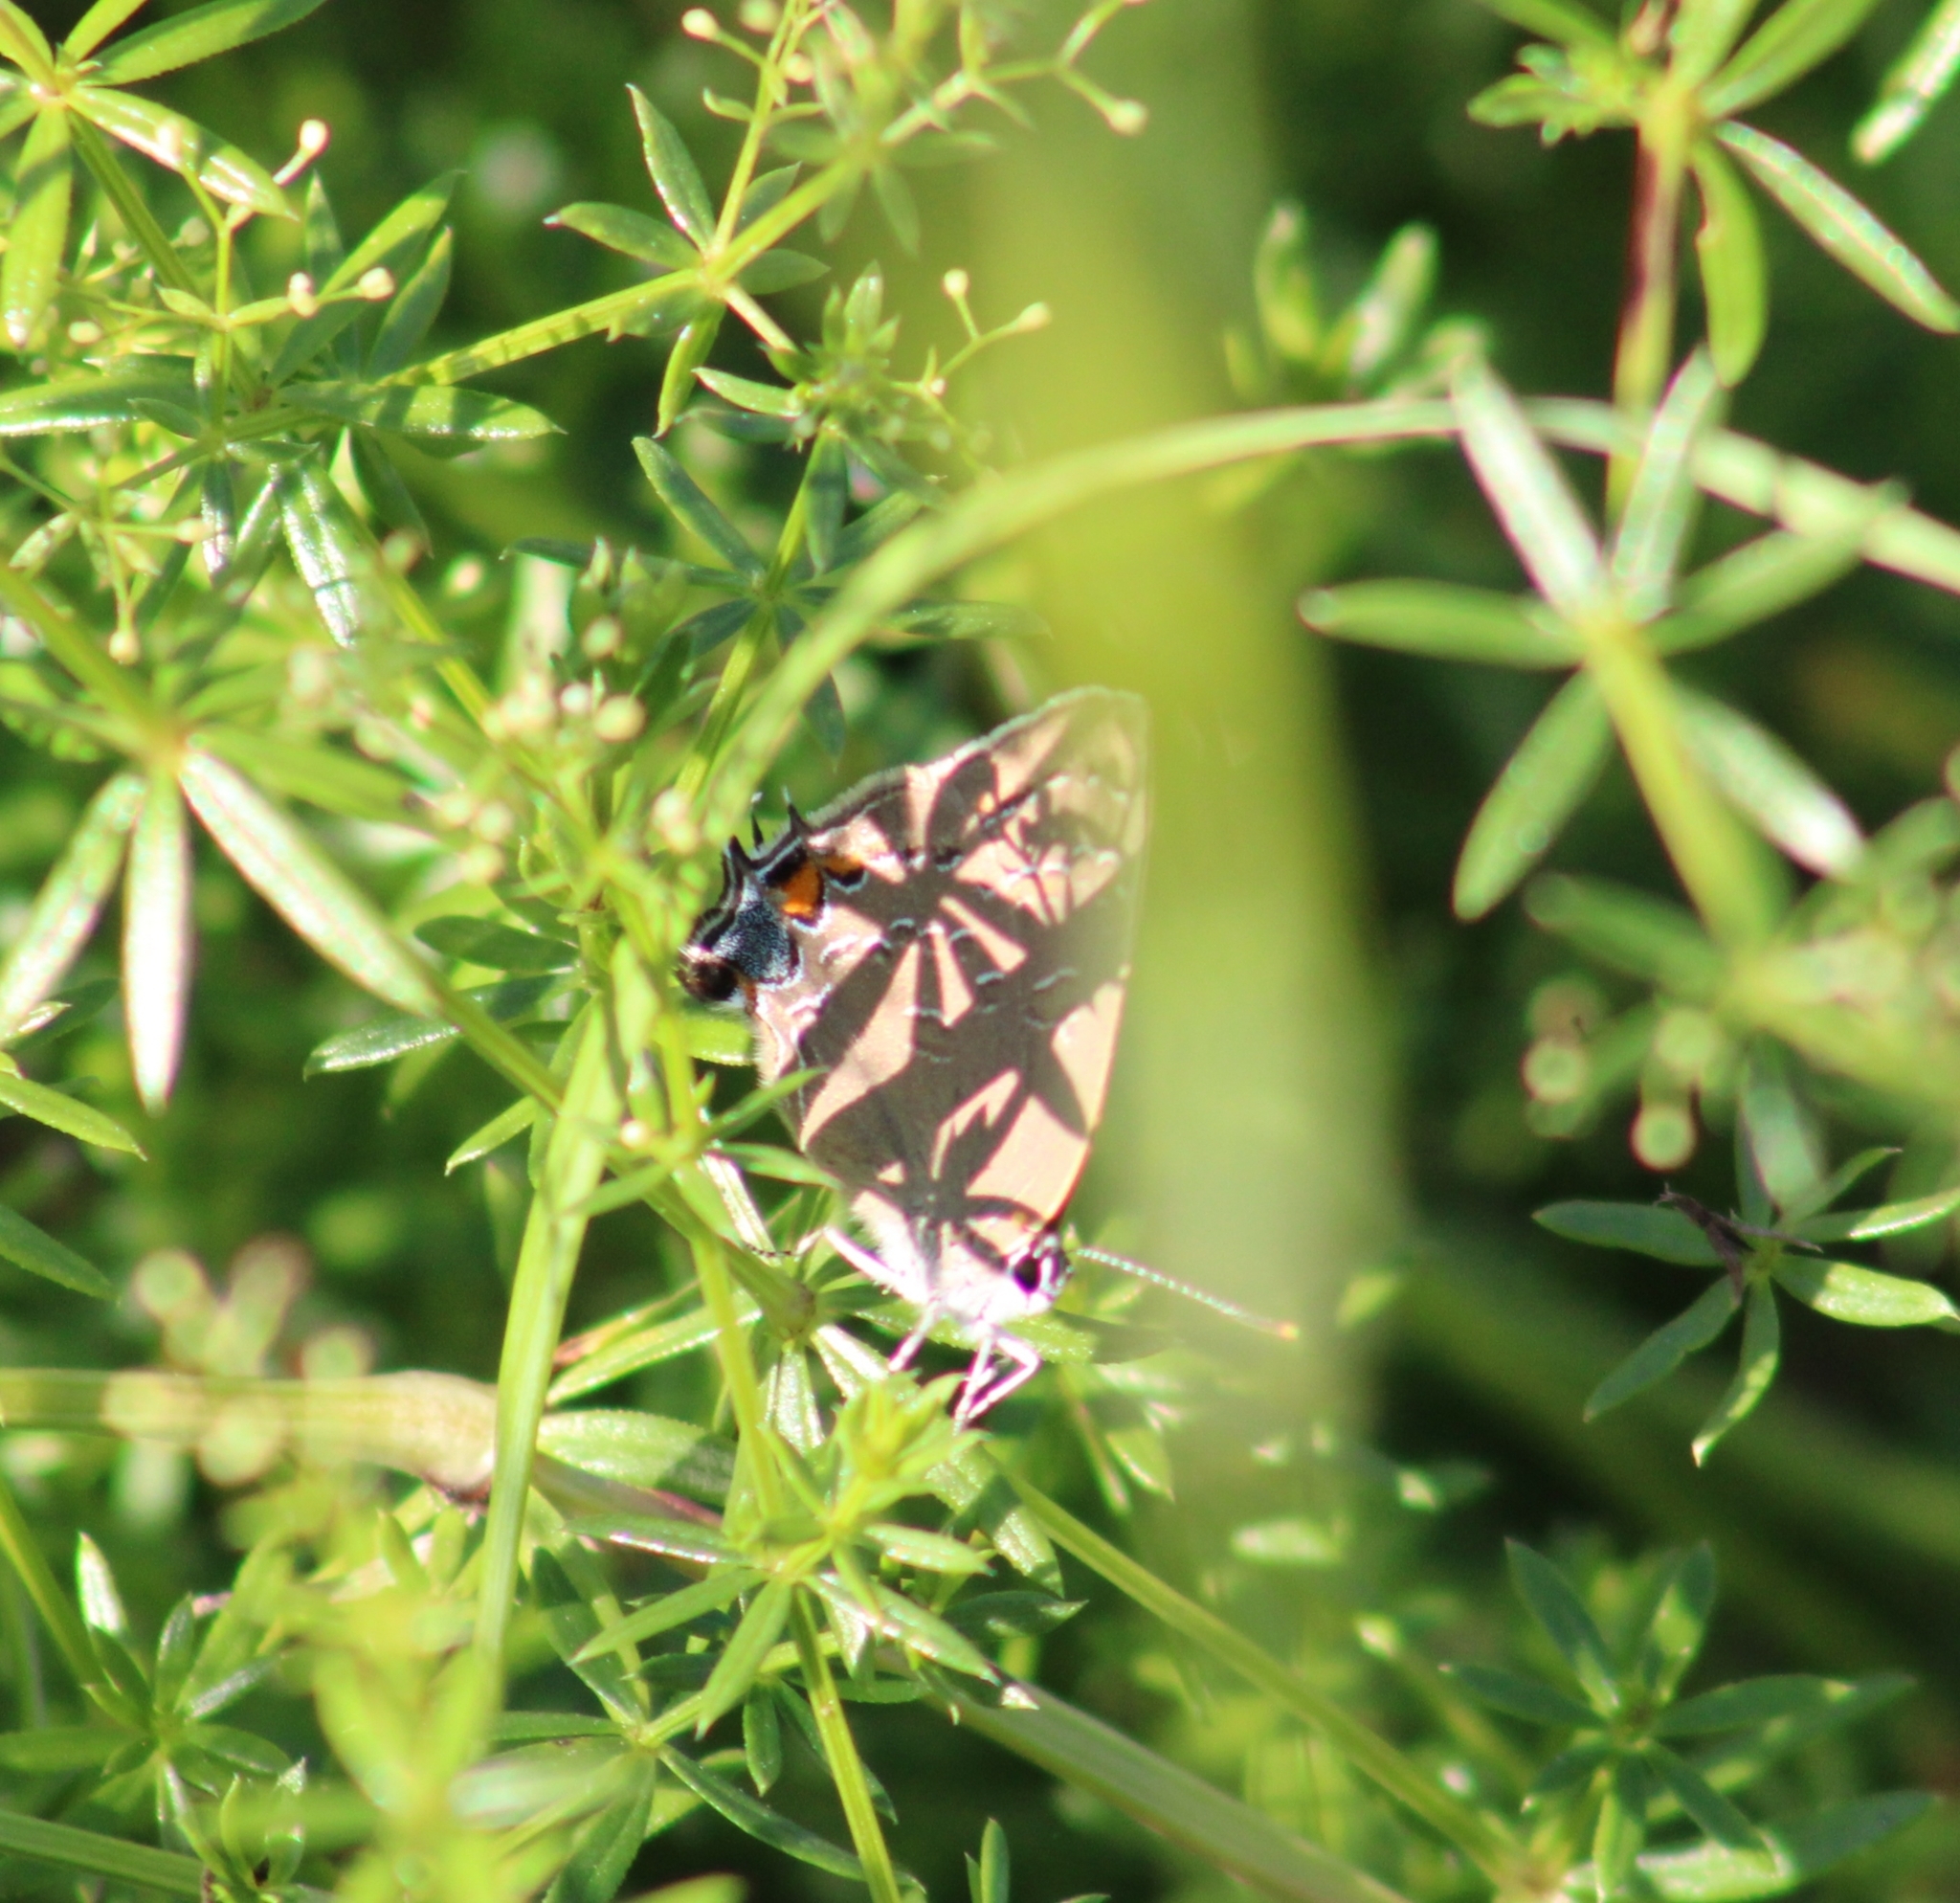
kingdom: Animalia
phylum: Arthropoda
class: Insecta
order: Lepidoptera
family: Lycaenidae
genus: Satyrium
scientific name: Satyrium calanus
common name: Banded hairstreak
